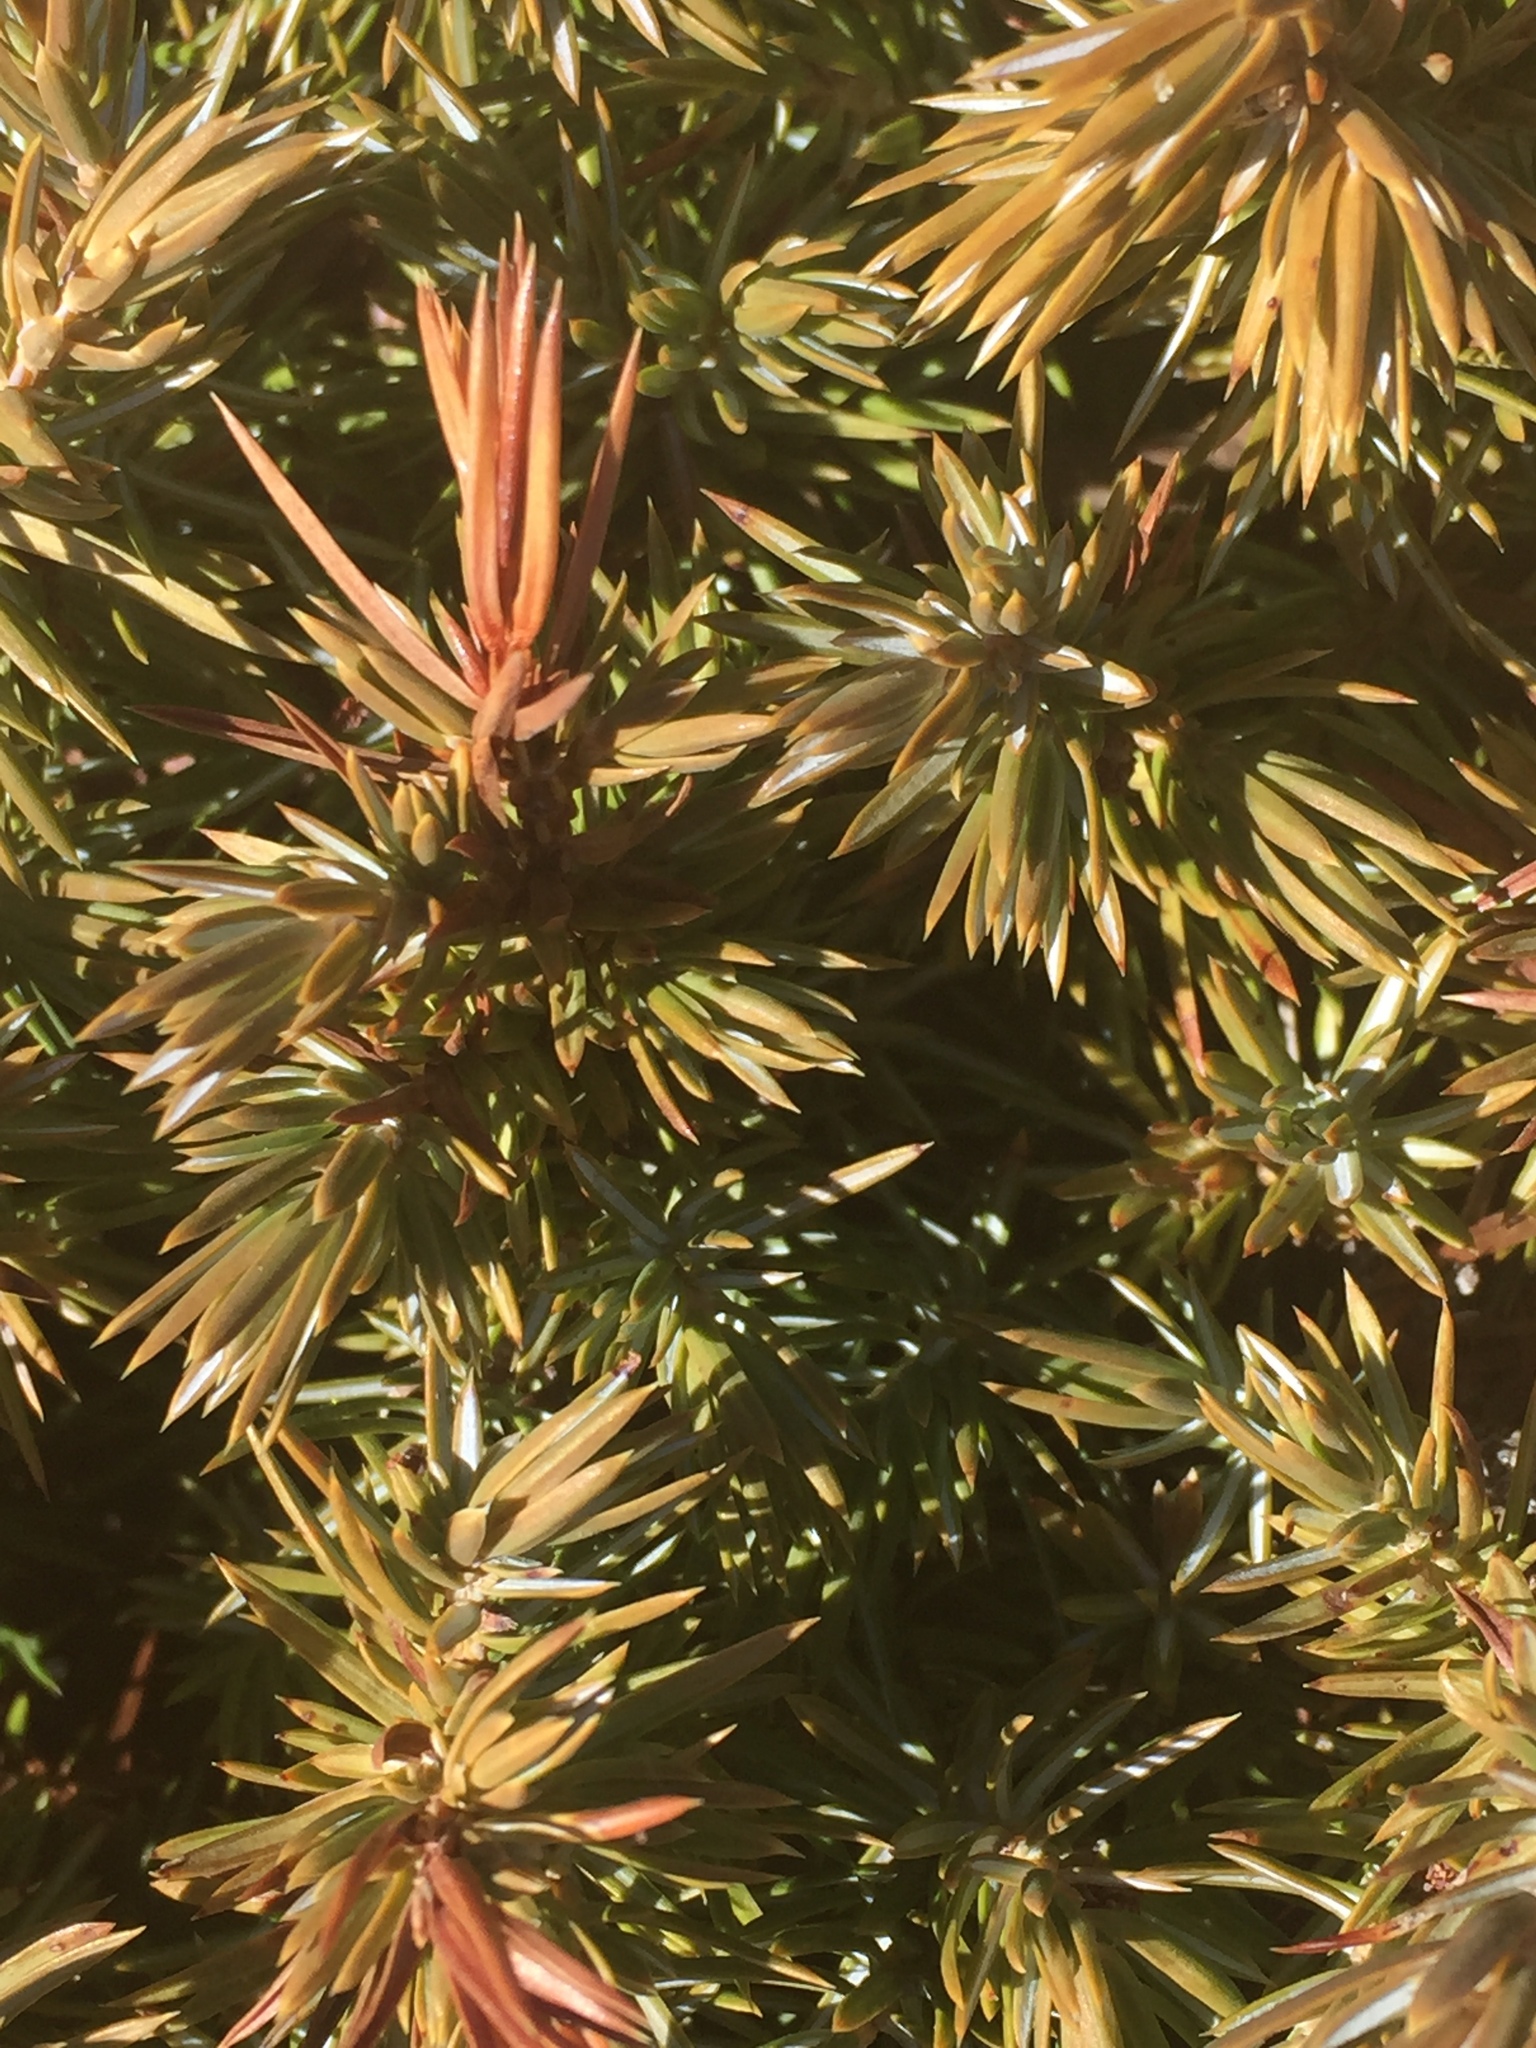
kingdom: Plantae
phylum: Tracheophyta
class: Pinopsida
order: Pinales
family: Cupressaceae
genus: Juniperus
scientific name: Juniperus communis
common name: Common juniper
